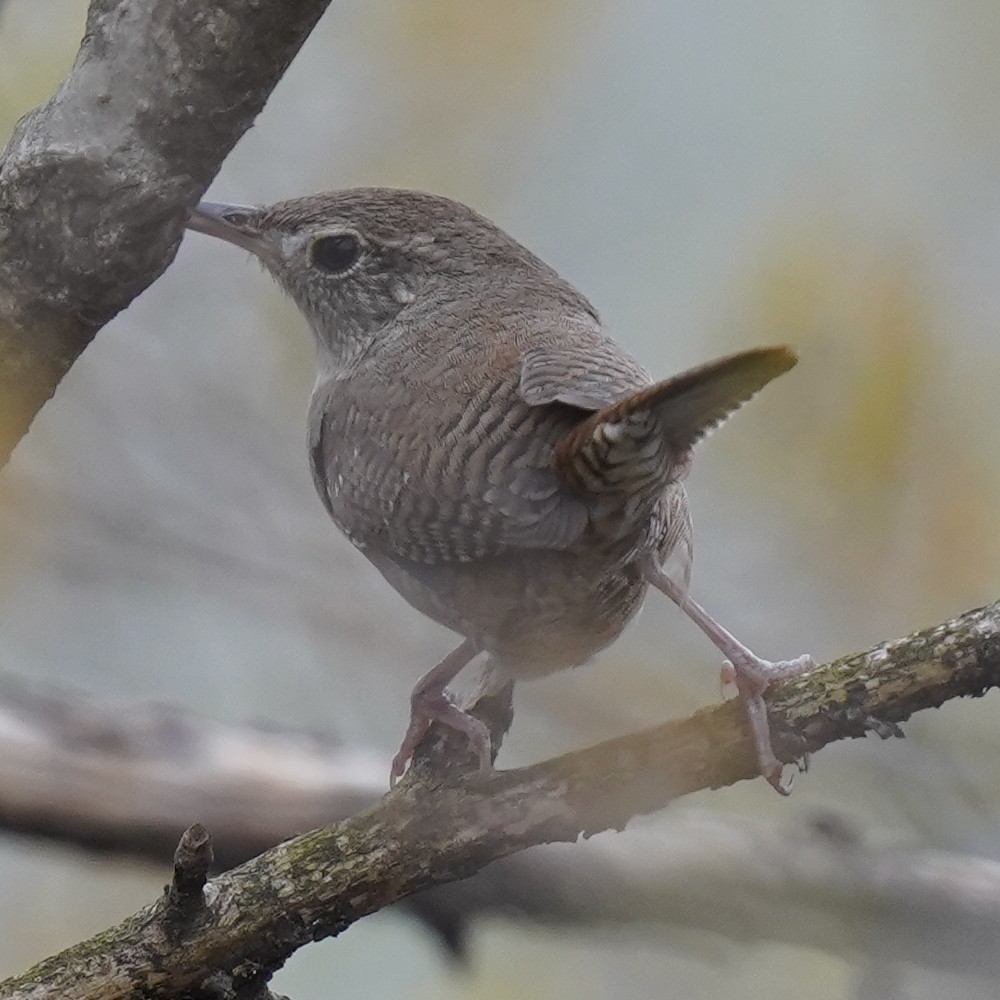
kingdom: Animalia
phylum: Chordata
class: Aves
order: Passeriformes
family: Troglodytidae
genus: Troglodytes
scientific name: Troglodytes aedon
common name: House wren
